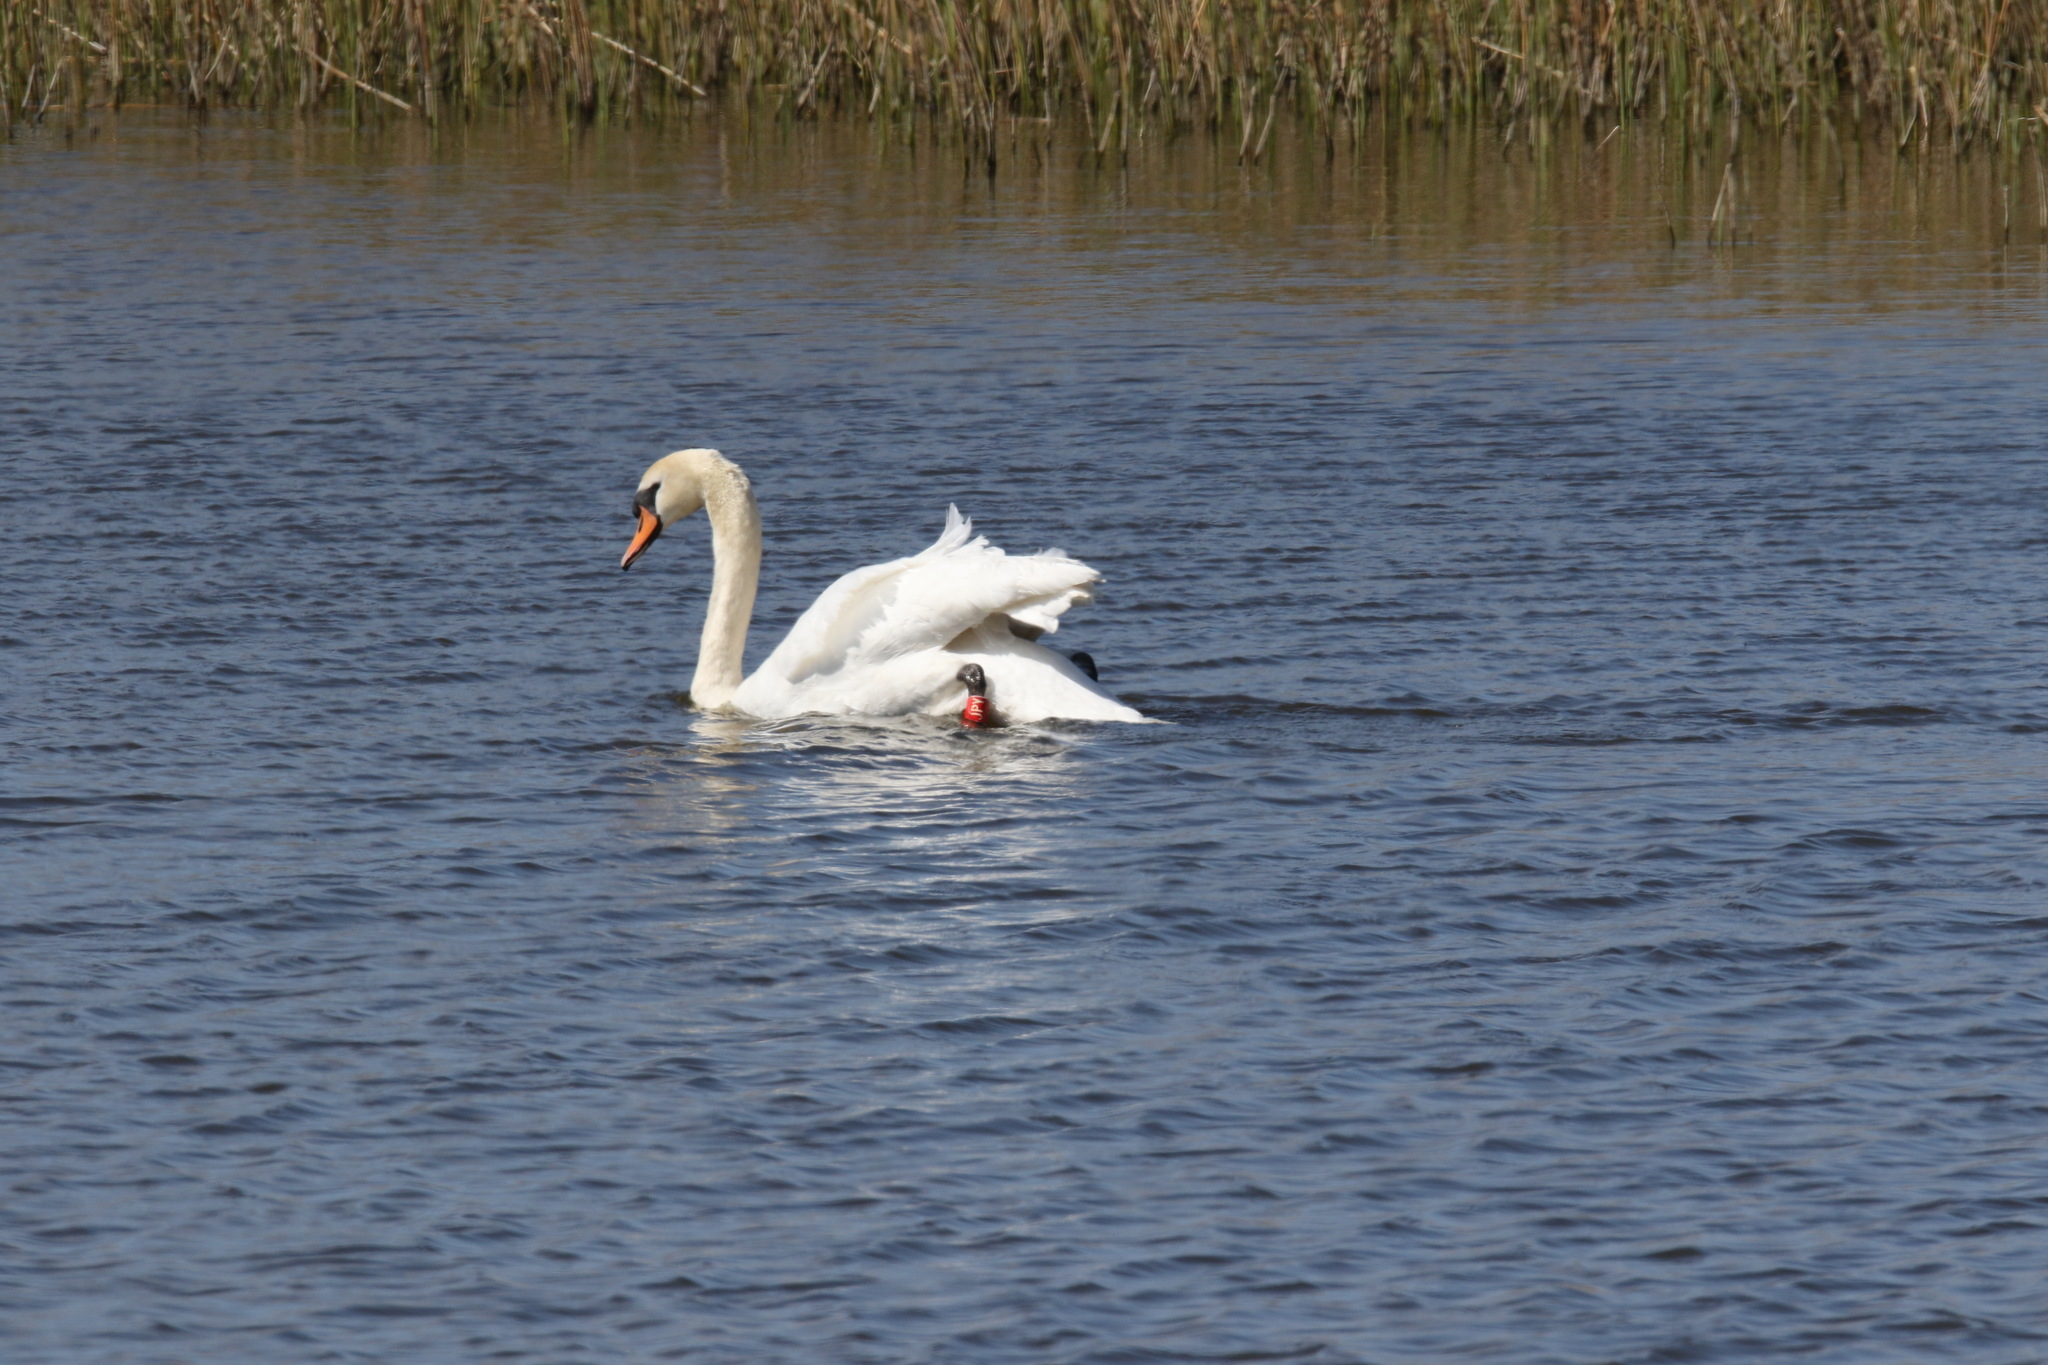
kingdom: Animalia
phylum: Chordata
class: Aves
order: Anseriformes
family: Anatidae
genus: Cygnus
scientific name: Cygnus olor
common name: Mute swan
